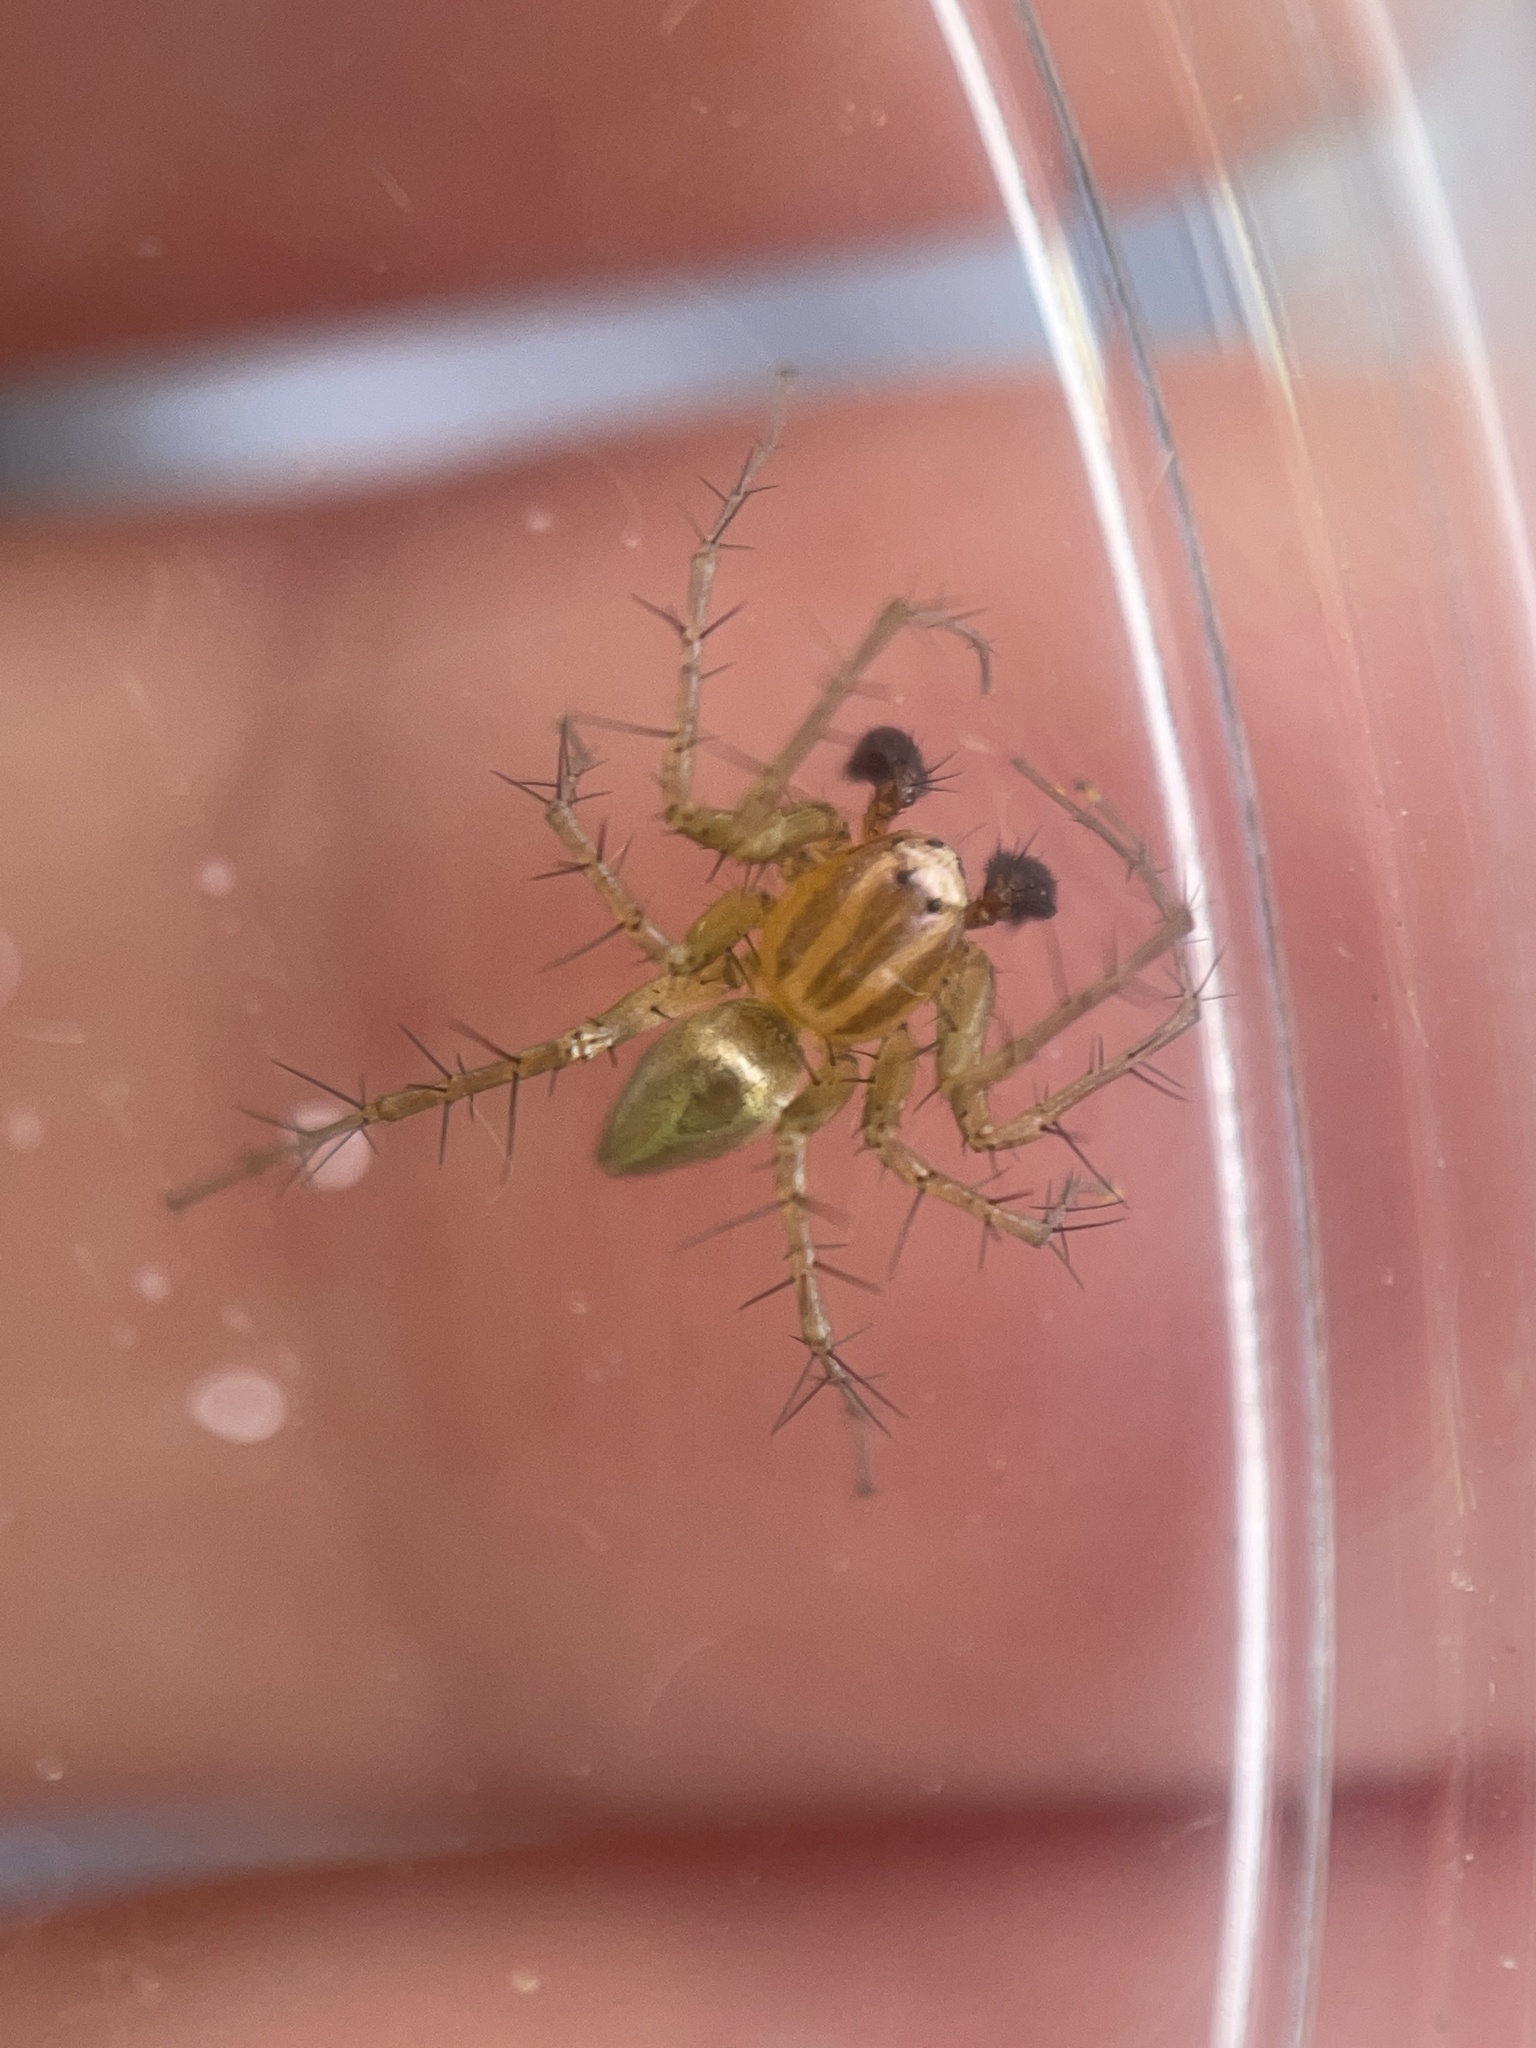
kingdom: Animalia
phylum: Arthropoda
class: Arachnida
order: Araneae
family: Oxyopidae
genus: Oxyopes
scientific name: Oxyopes salticus
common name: Lynx spiders
